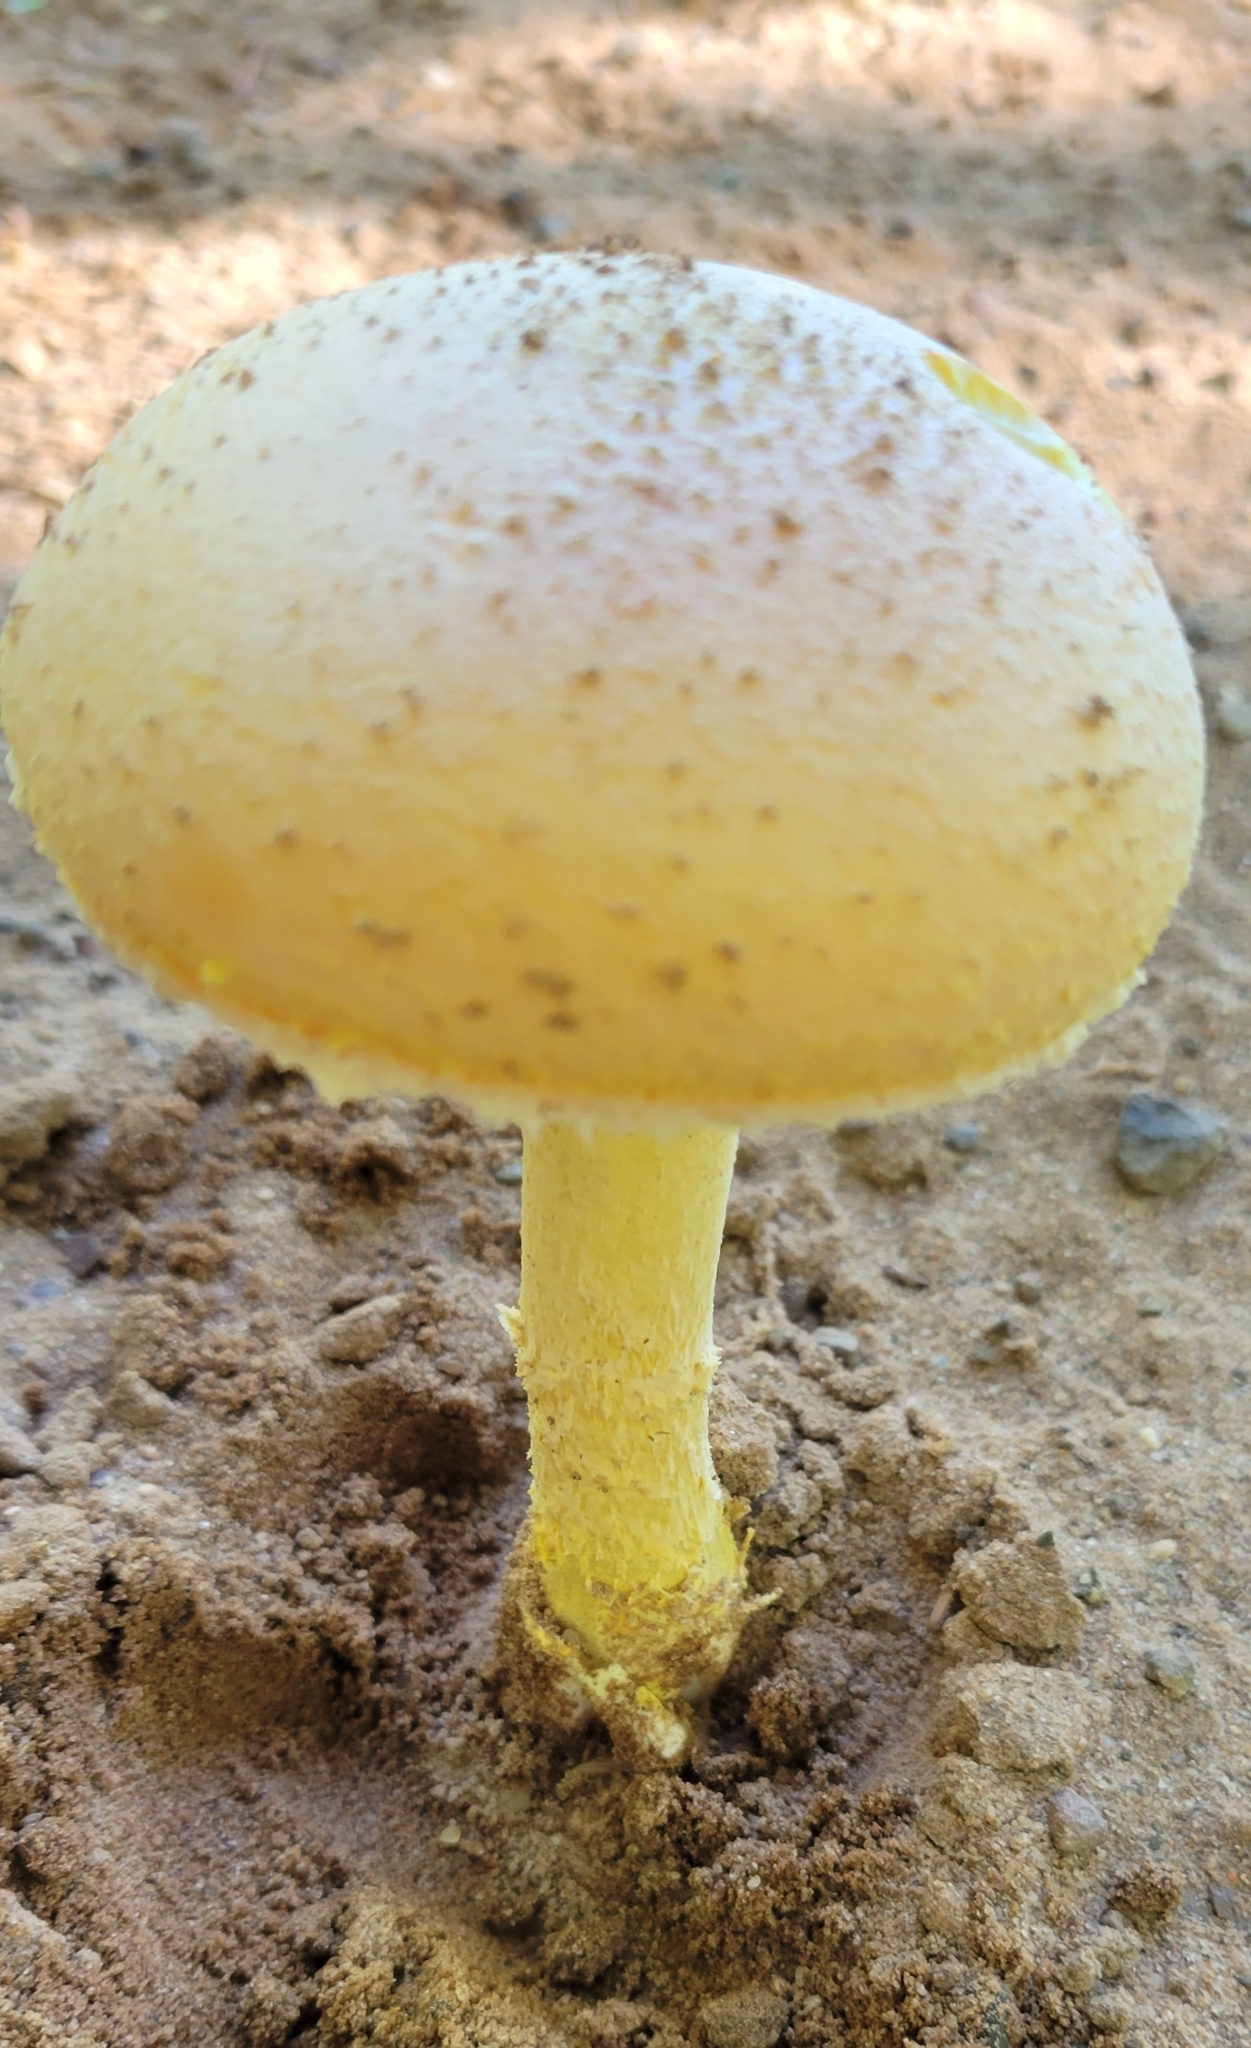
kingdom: Fungi
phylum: Basidiomycota
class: Agaricomycetes
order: Agaricales
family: Amanitaceae
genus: Amanita
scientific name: Amanita wellsii
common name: Salmon amanita
